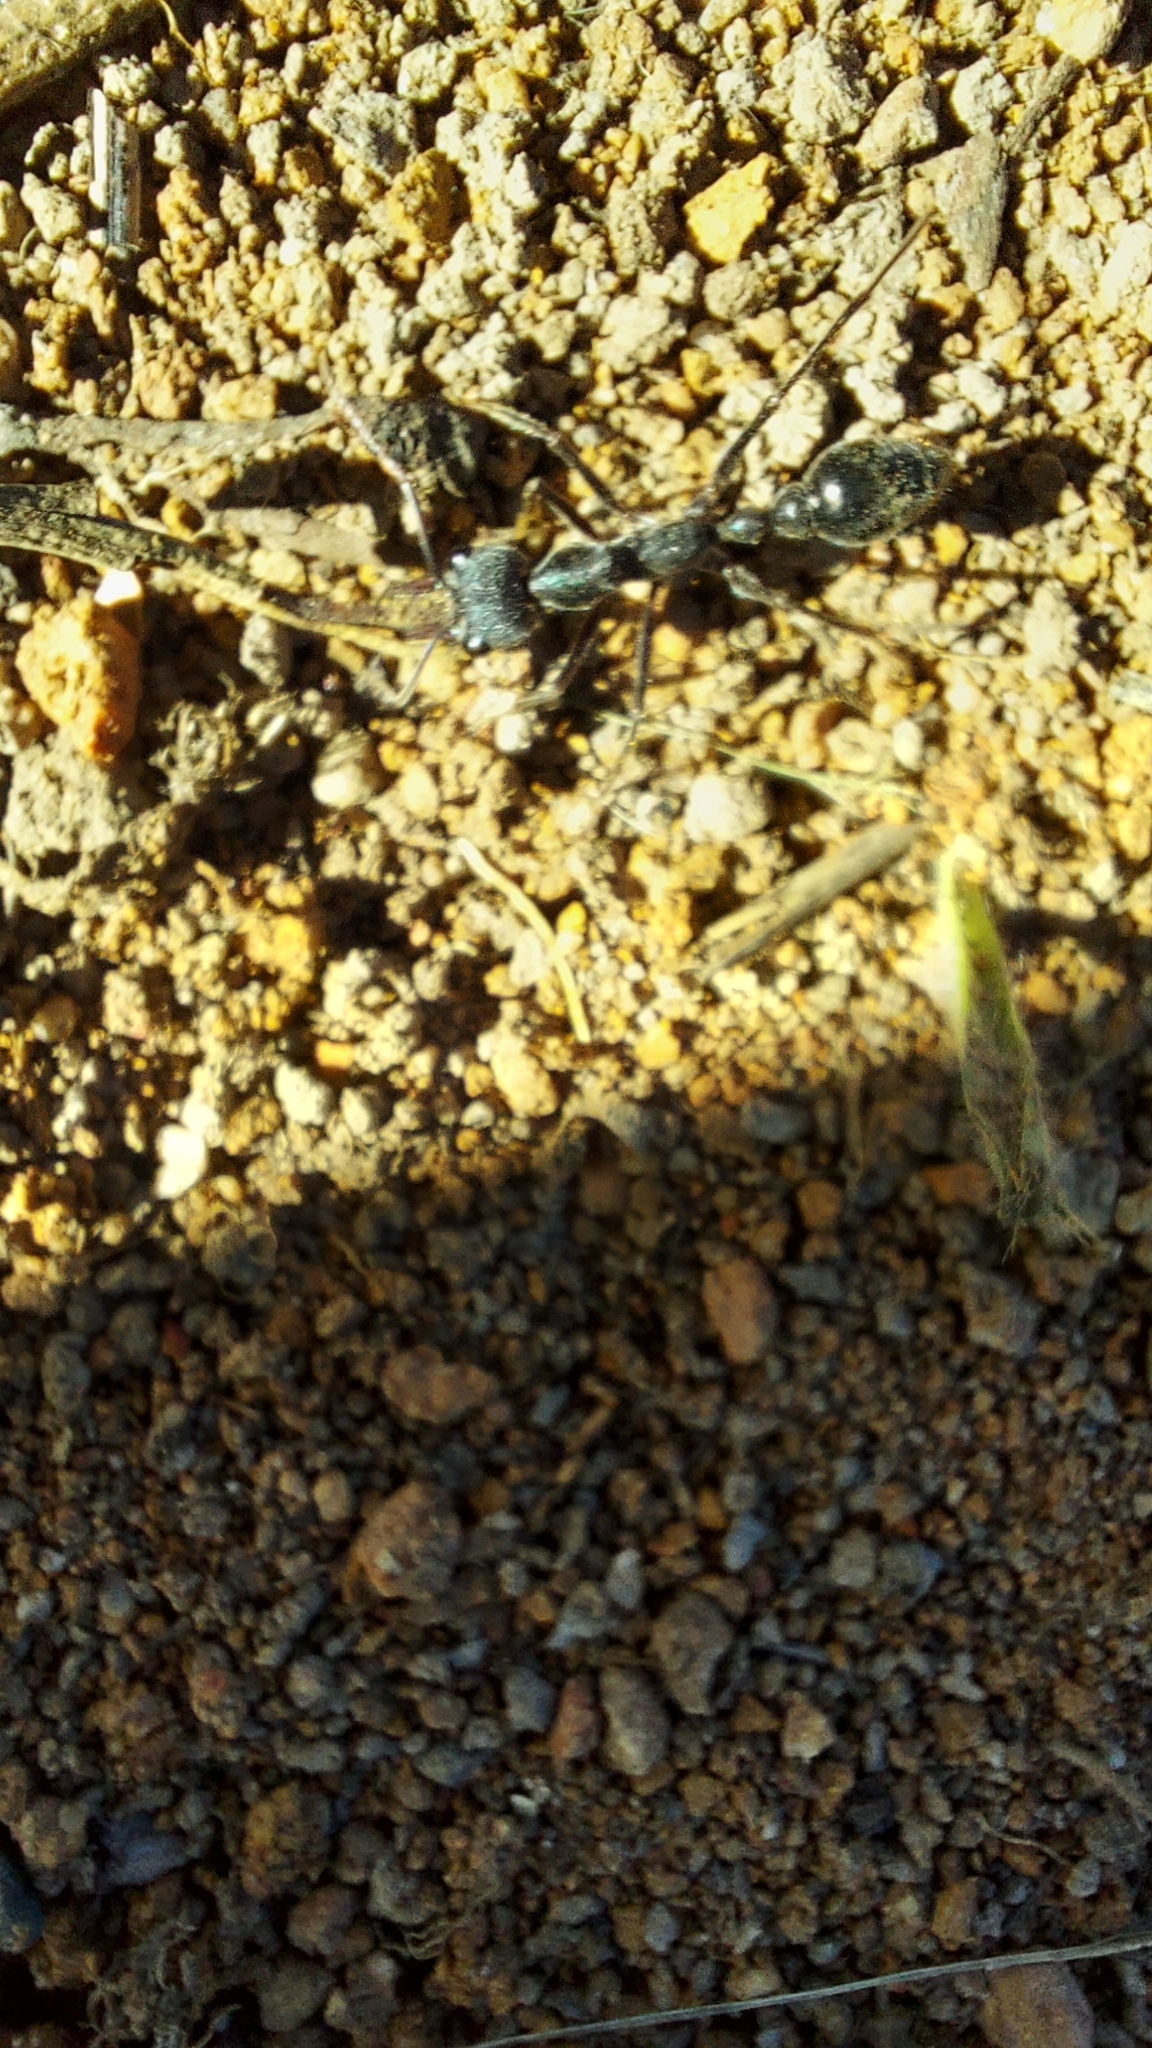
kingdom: Animalia
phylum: Arthropoda
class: Insecta
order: Hymenoptera
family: Formicidae
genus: Myrmecia
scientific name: Myrmecia pyriformis
